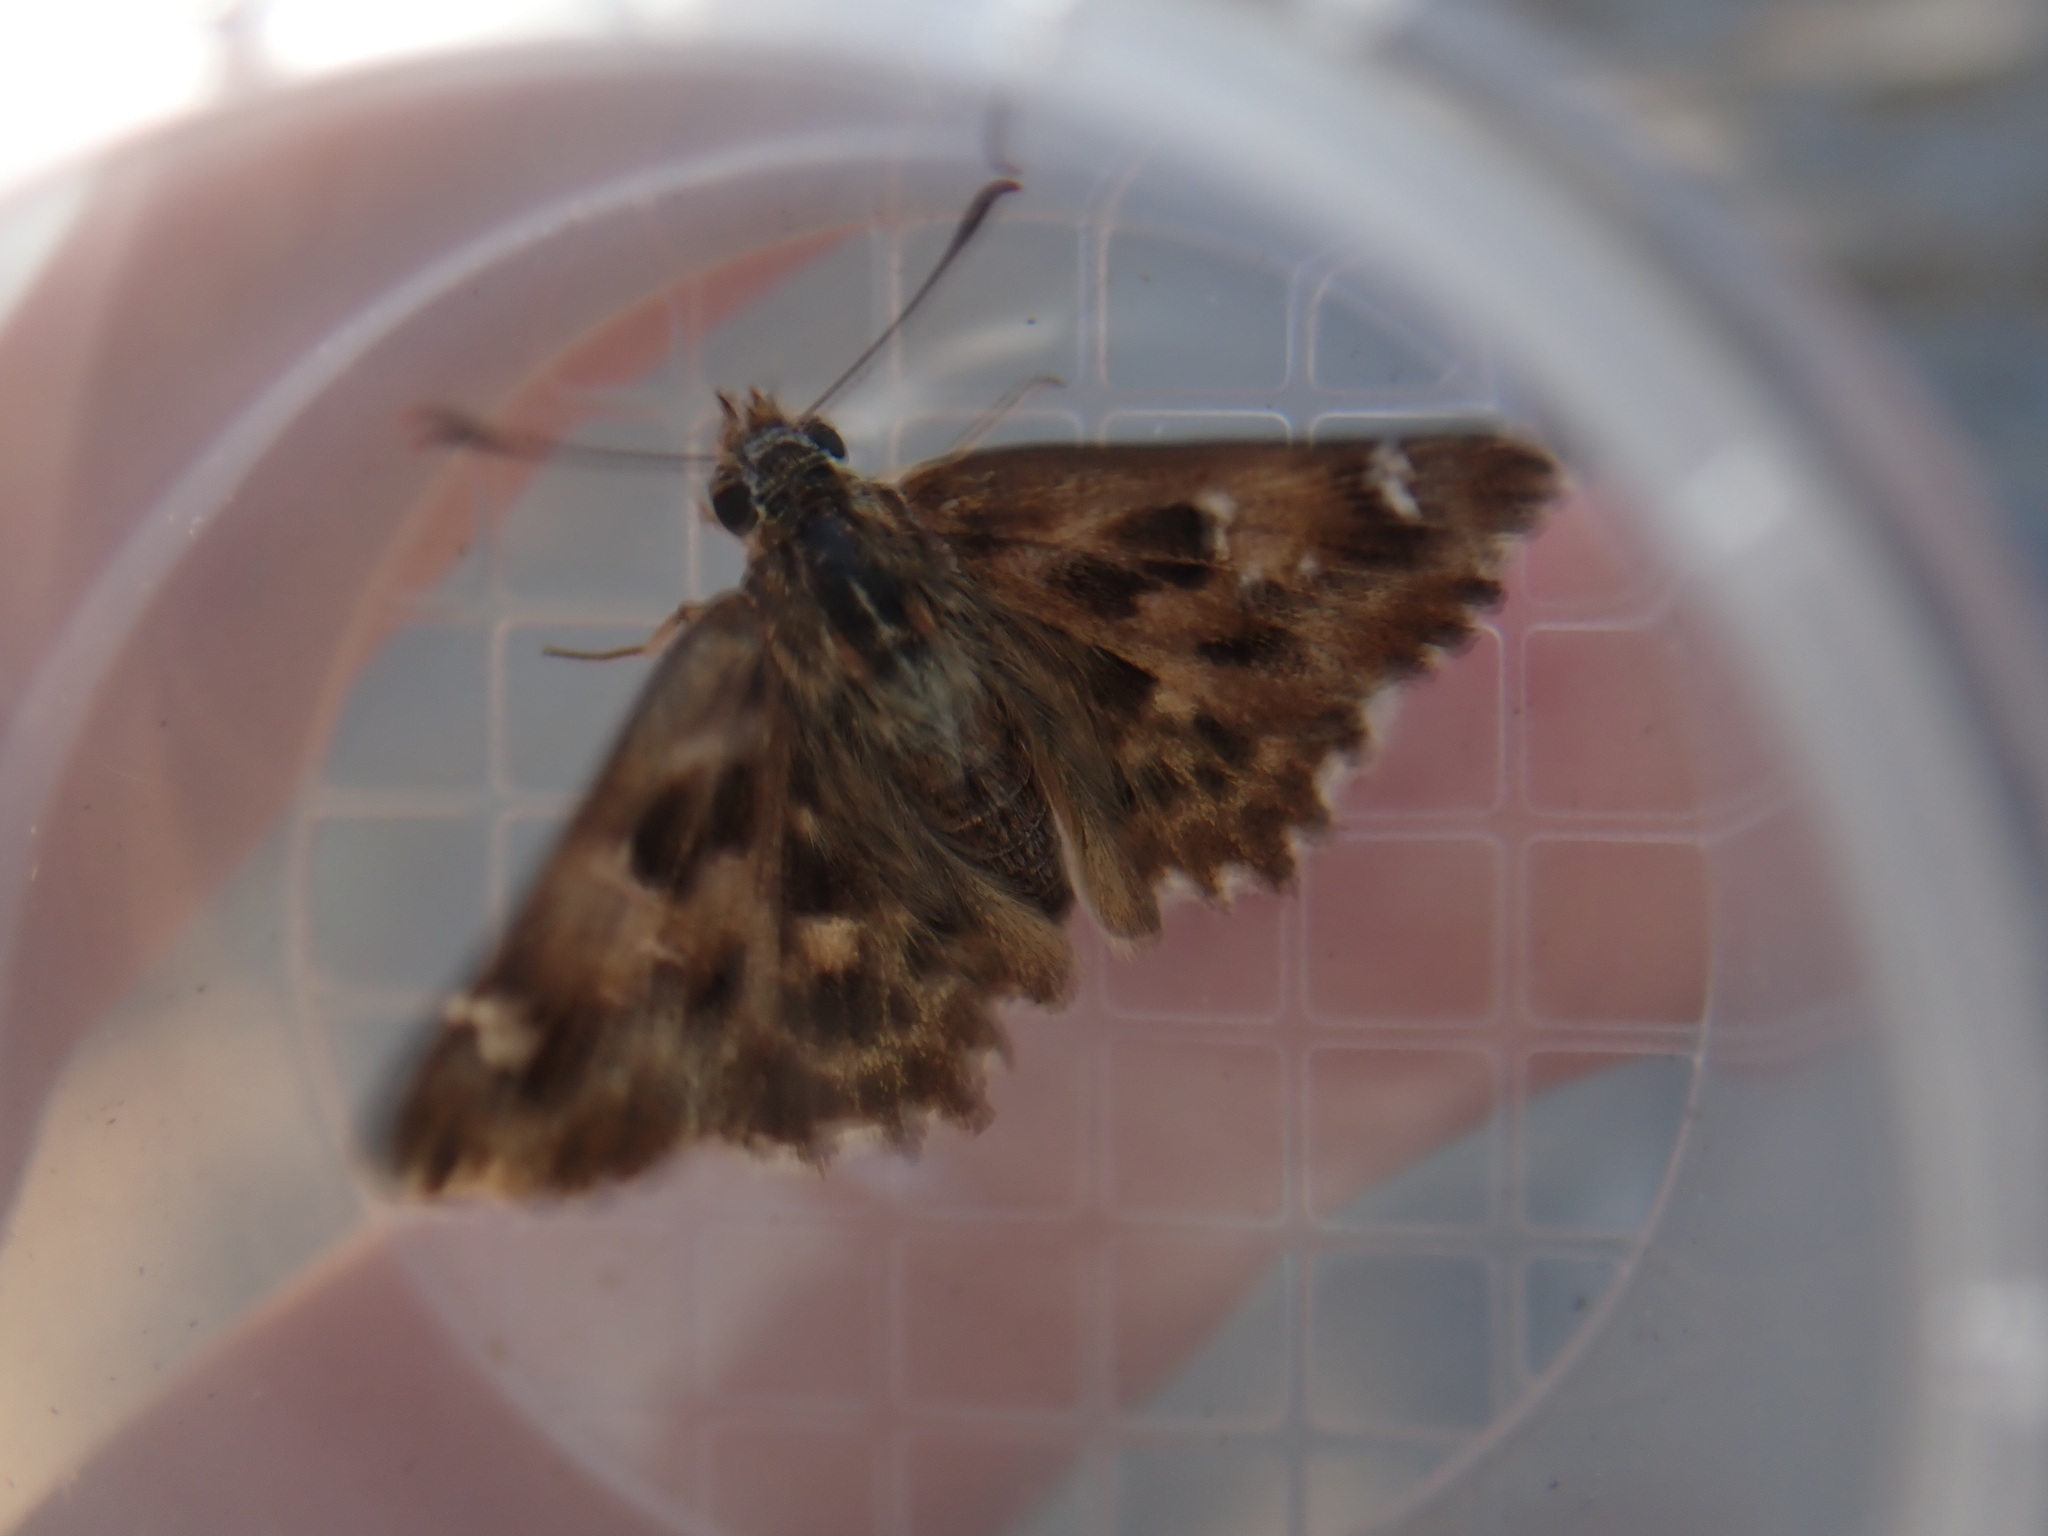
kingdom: Animalia
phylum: Arthropoda
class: Insecta
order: Lepidoptera
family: Hesperiidae
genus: Carcharodus
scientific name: Carcharodus alceae
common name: Mallow skipper
